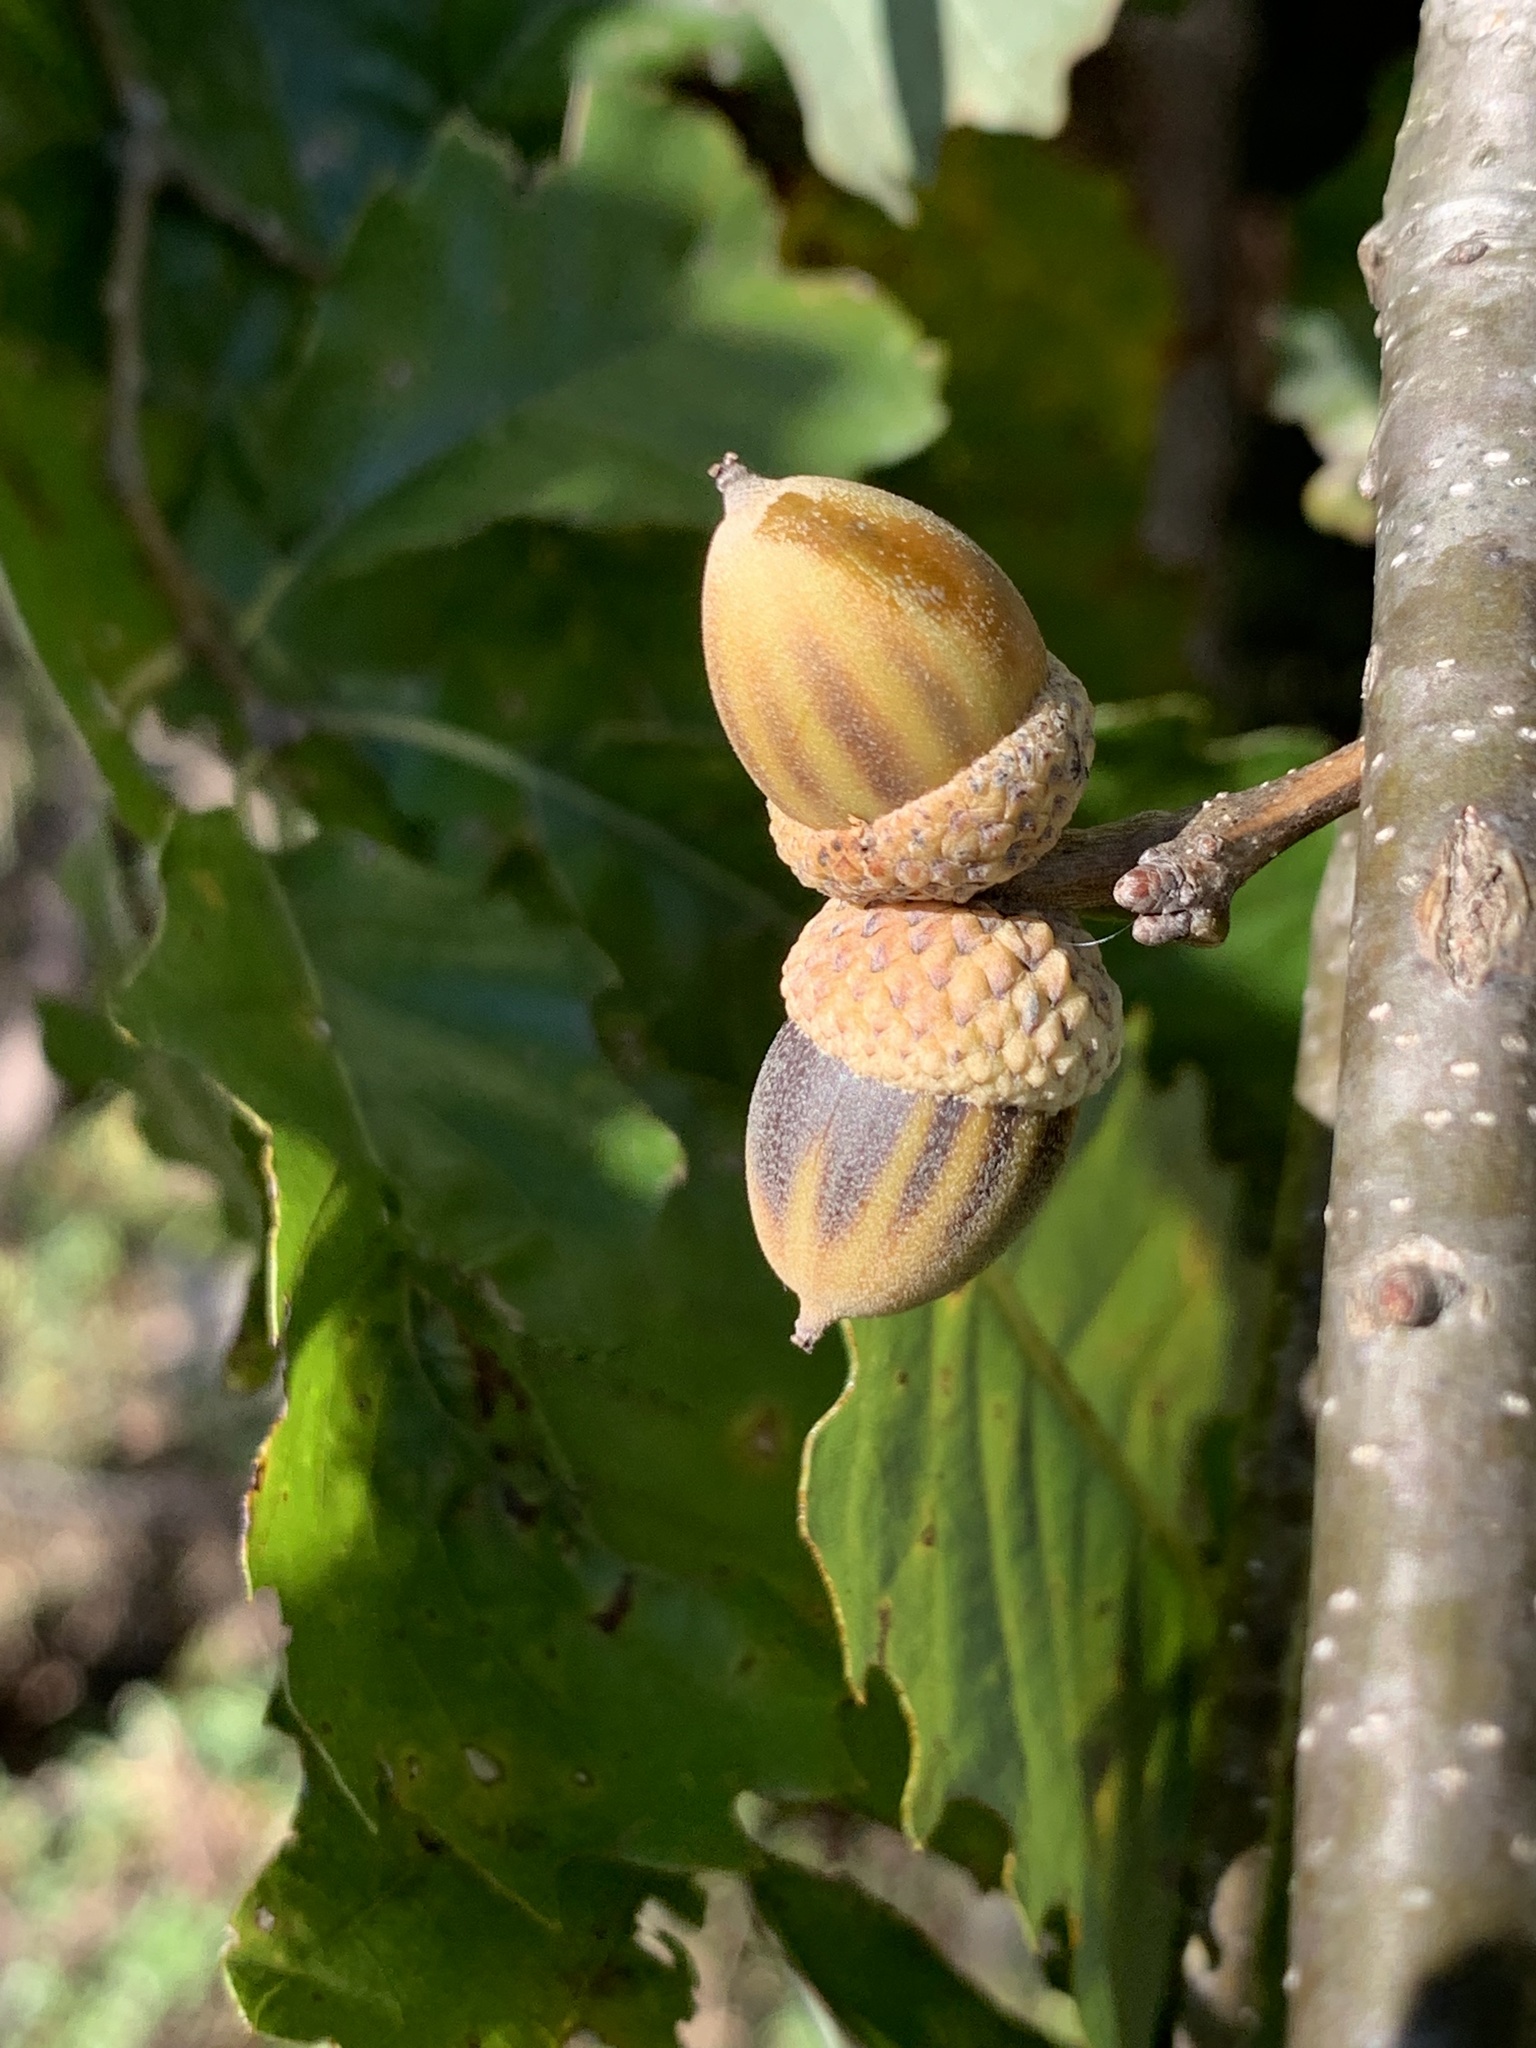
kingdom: Plantae
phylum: Tracheophyta
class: Magnoliopsida
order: Fagales
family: Fagaceae
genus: Quercus
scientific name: Quercus muehlenbergii
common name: Chinkapin oak
